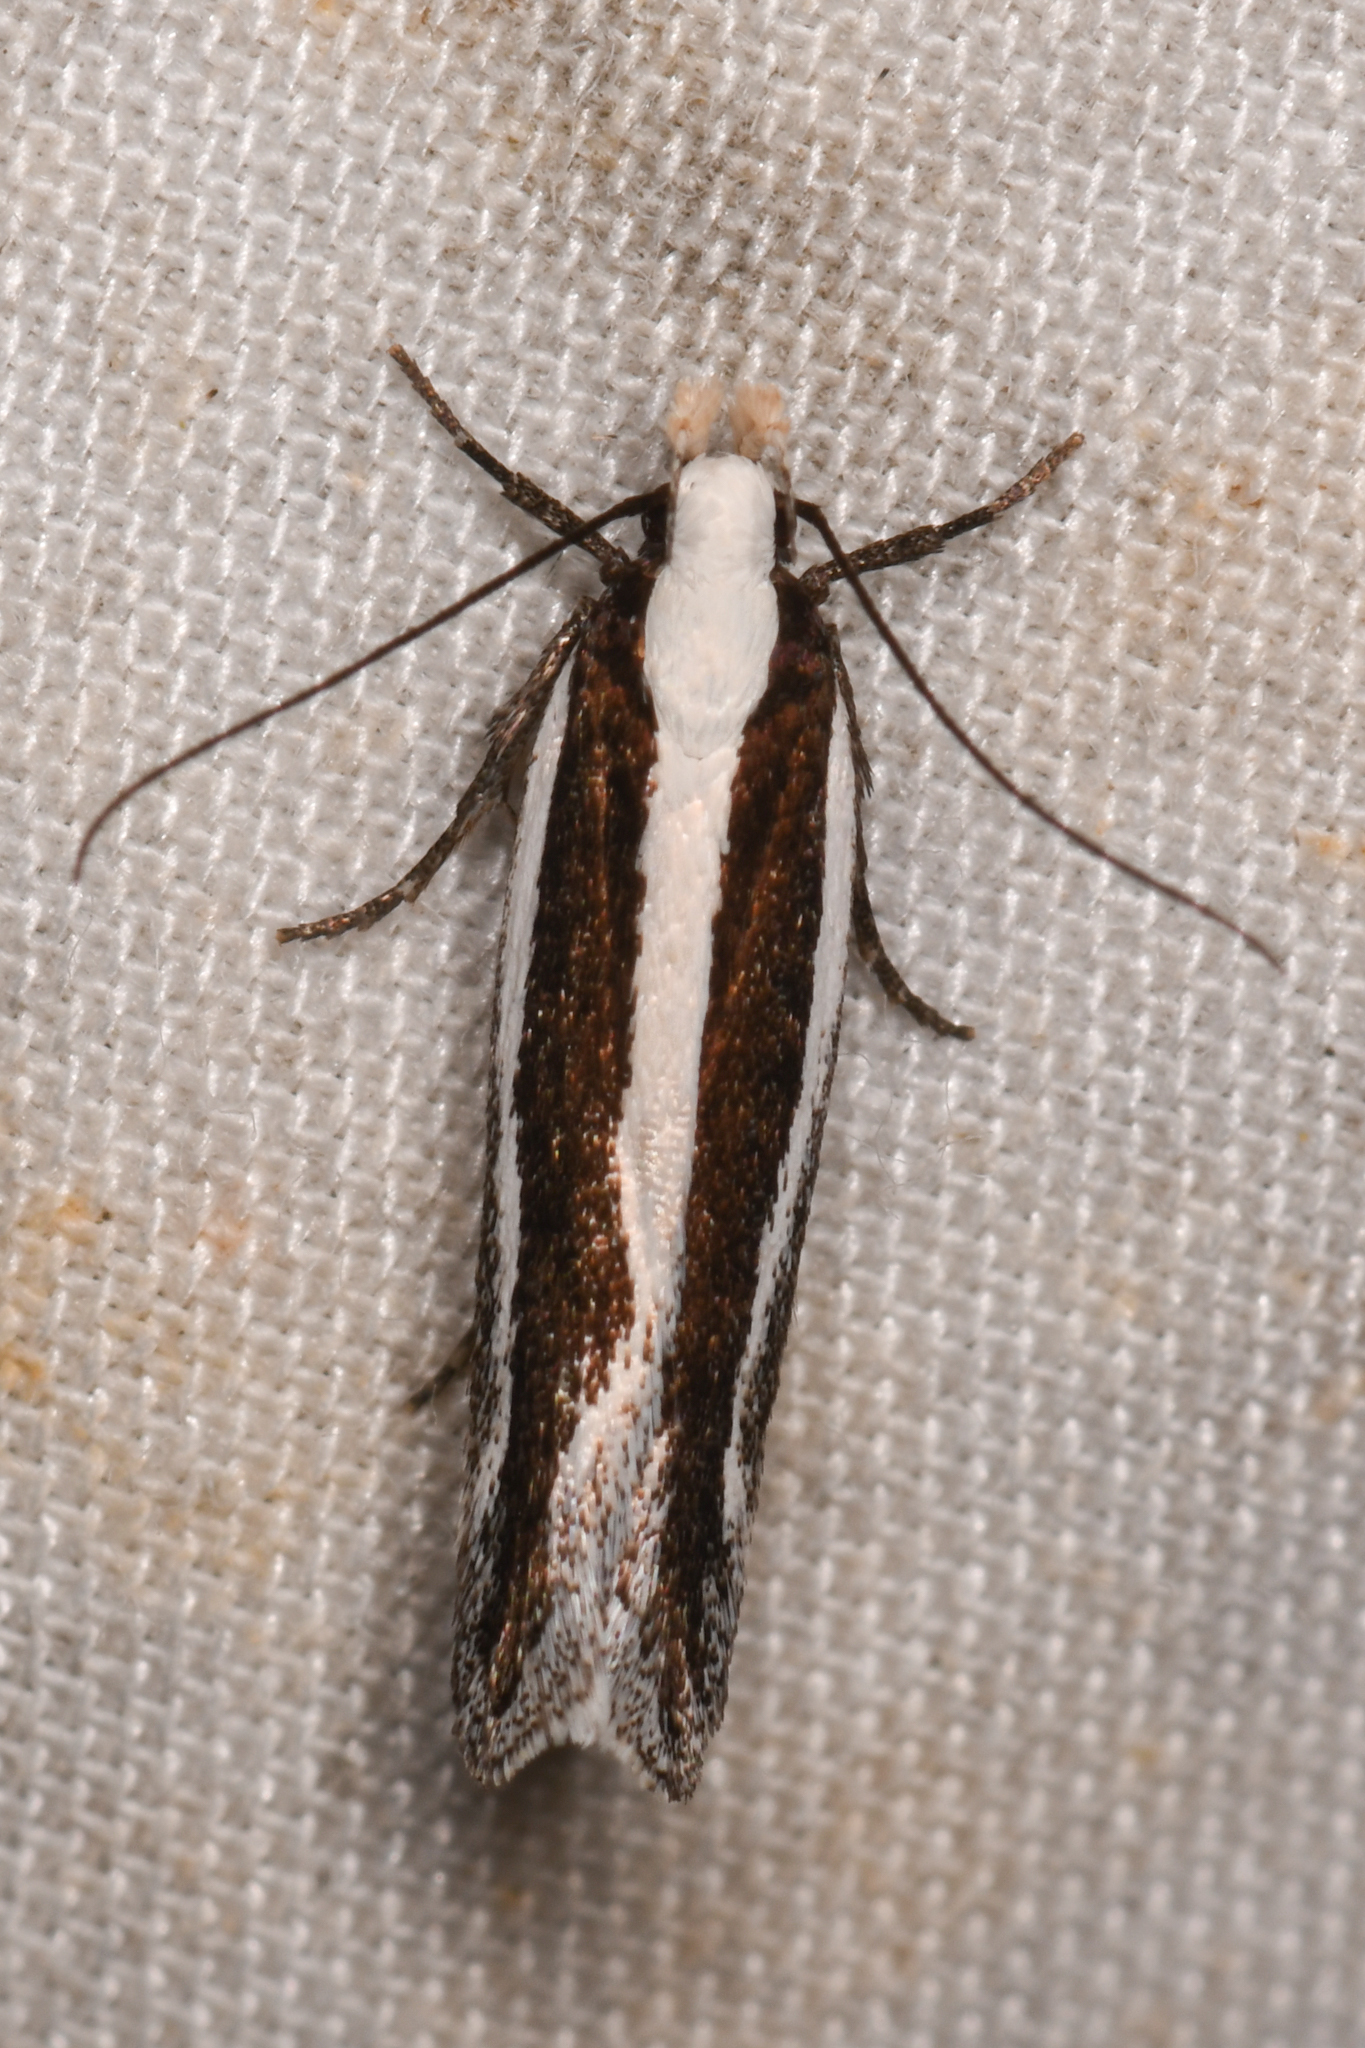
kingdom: Animalia
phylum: Arthropoda
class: Insecta
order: Lepidoptera
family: Gelechiidae
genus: Aroga
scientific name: Aroga morenella
